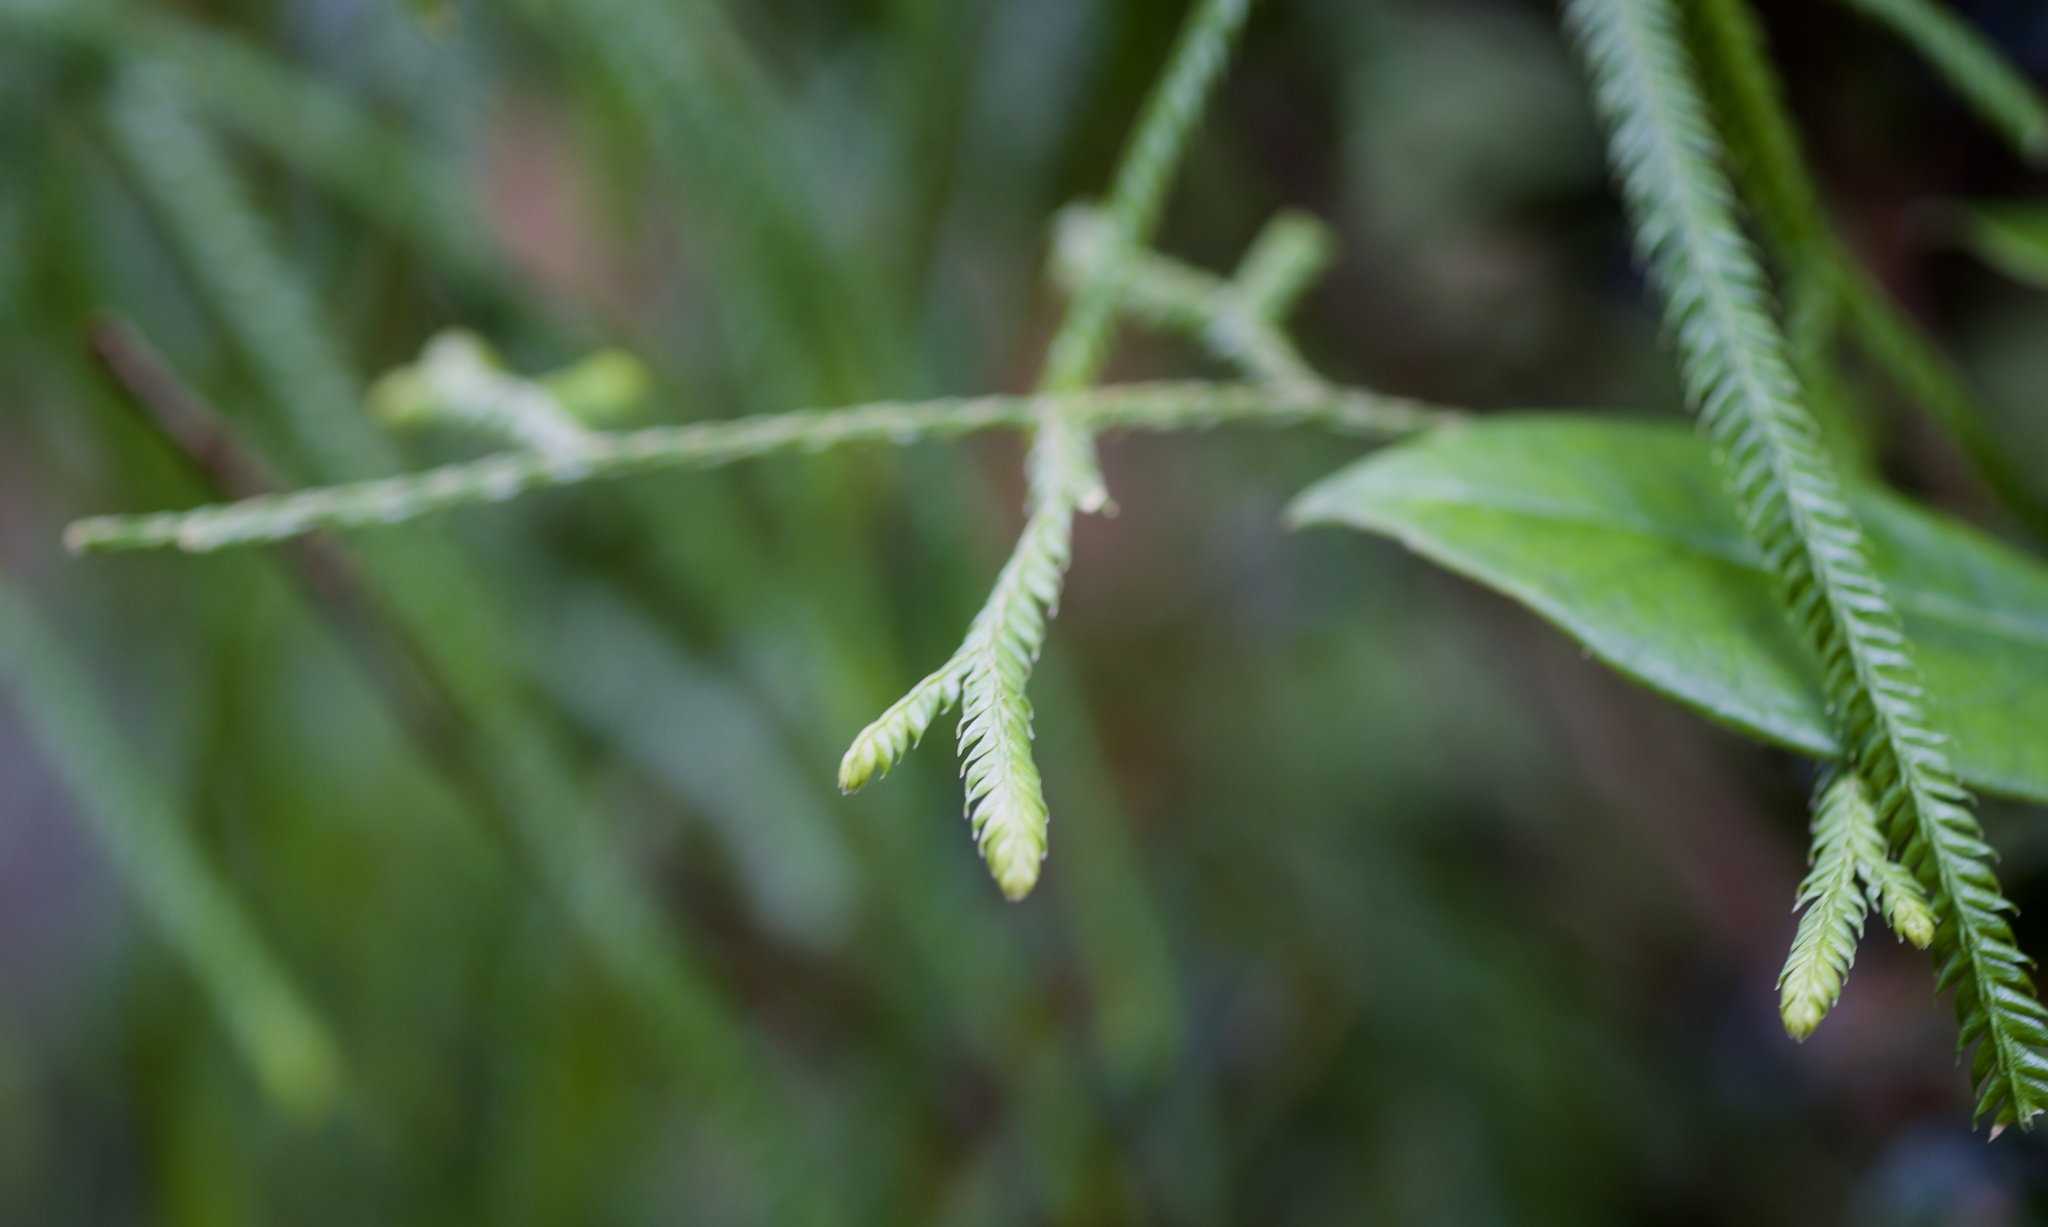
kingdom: Plantae
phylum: Tracheophyta
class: Lycopodiopsida
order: Lycopodiales
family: Lycopodiaceae
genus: Lycopodium
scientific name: Lycopodium volubile
